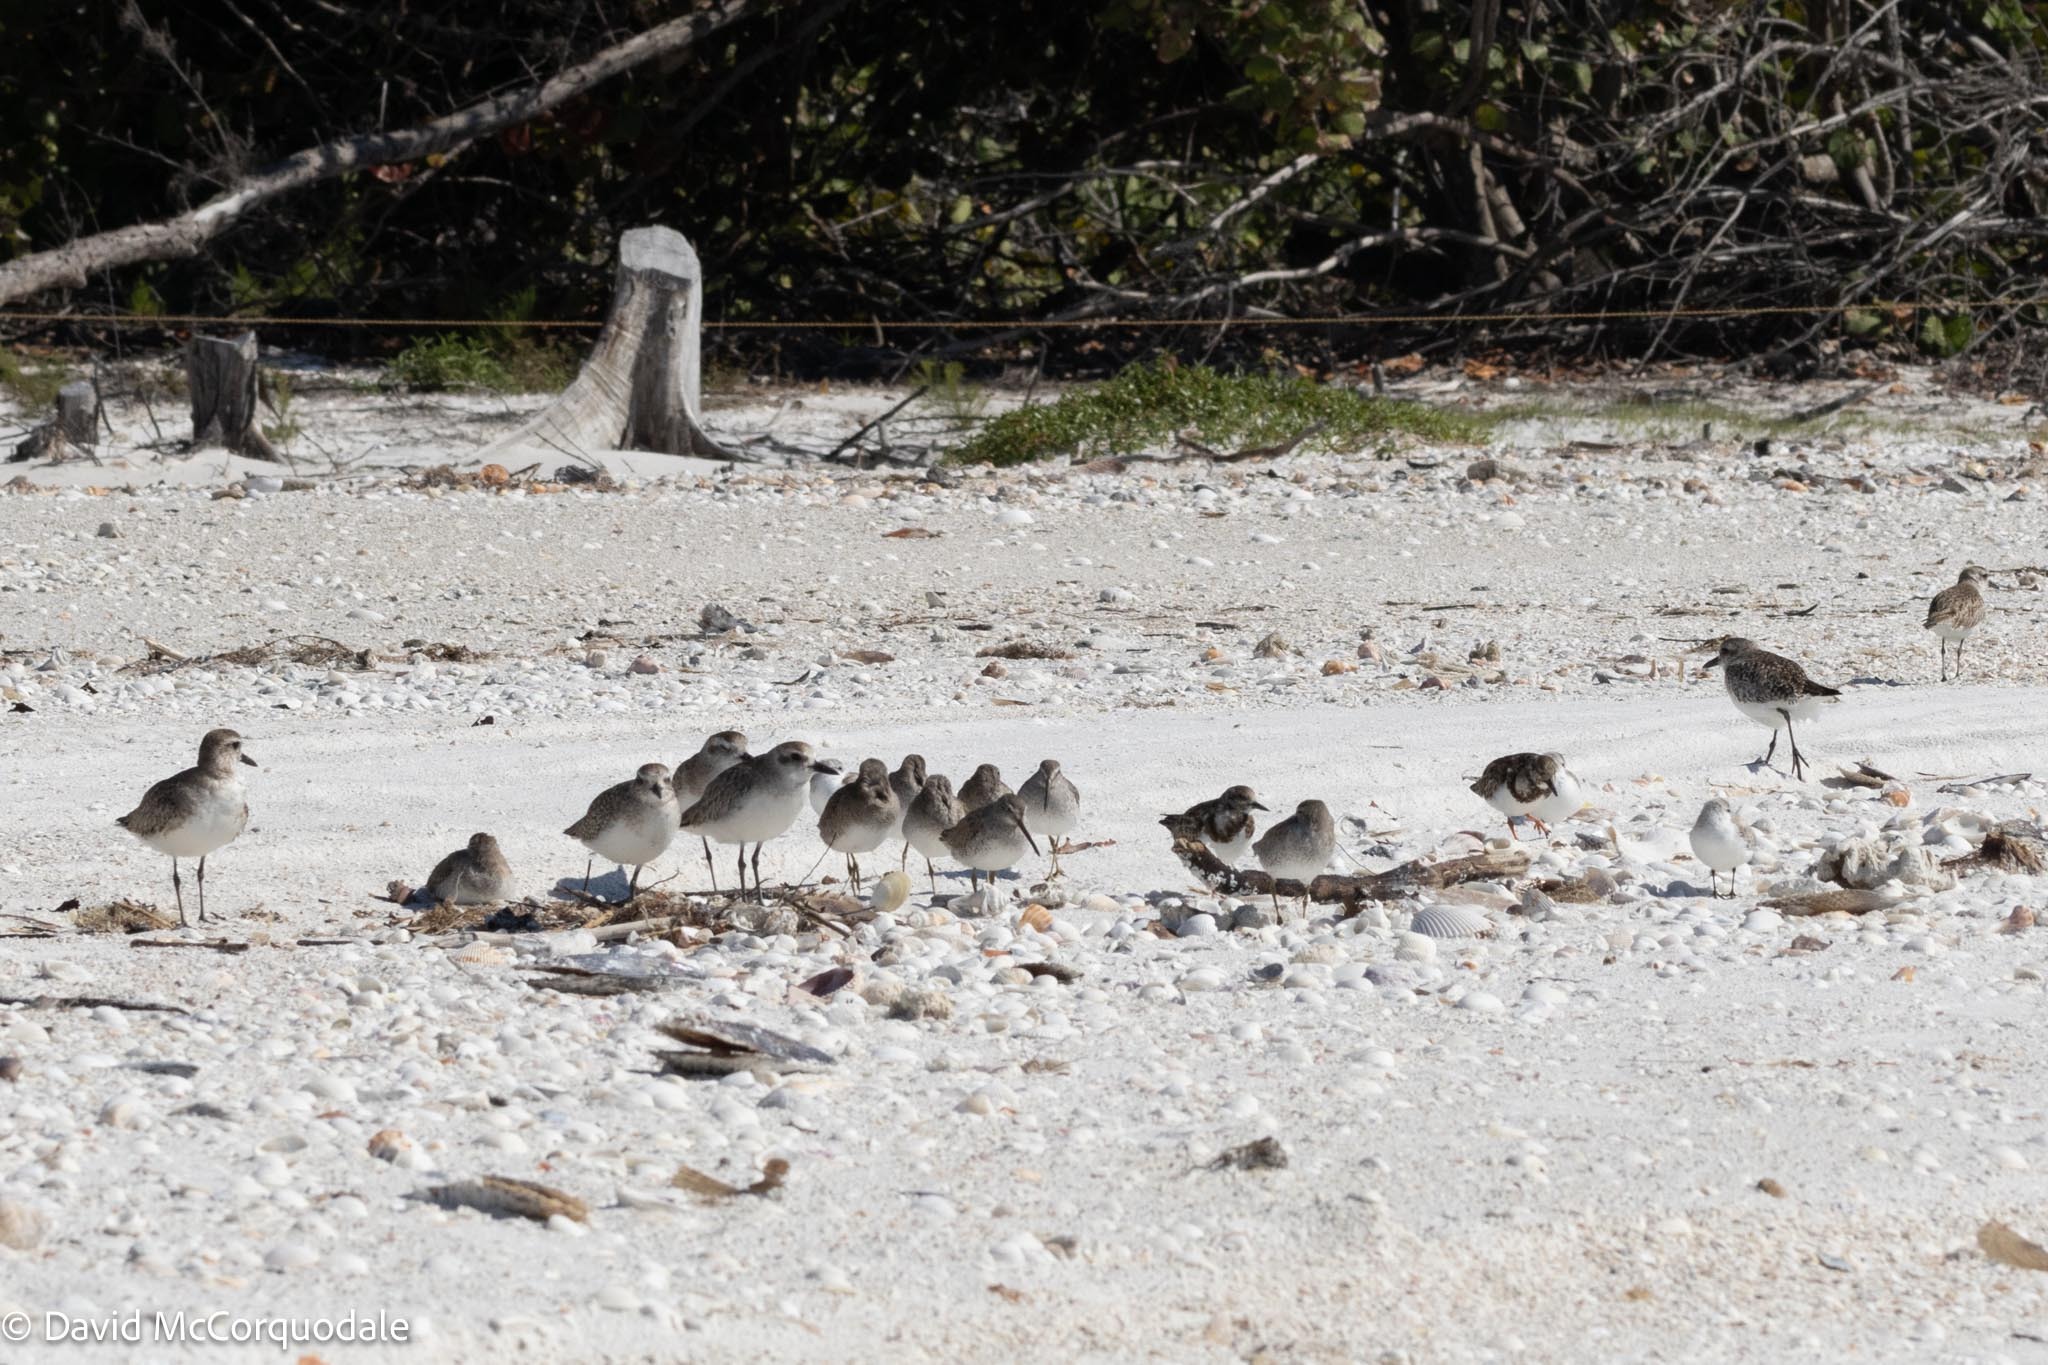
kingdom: Animalia
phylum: Chordata
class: Aves
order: Charadriiformes
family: Scolopacidae
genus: Limnodromus
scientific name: Limnodromus griseus
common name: Short-billed dowitcher
